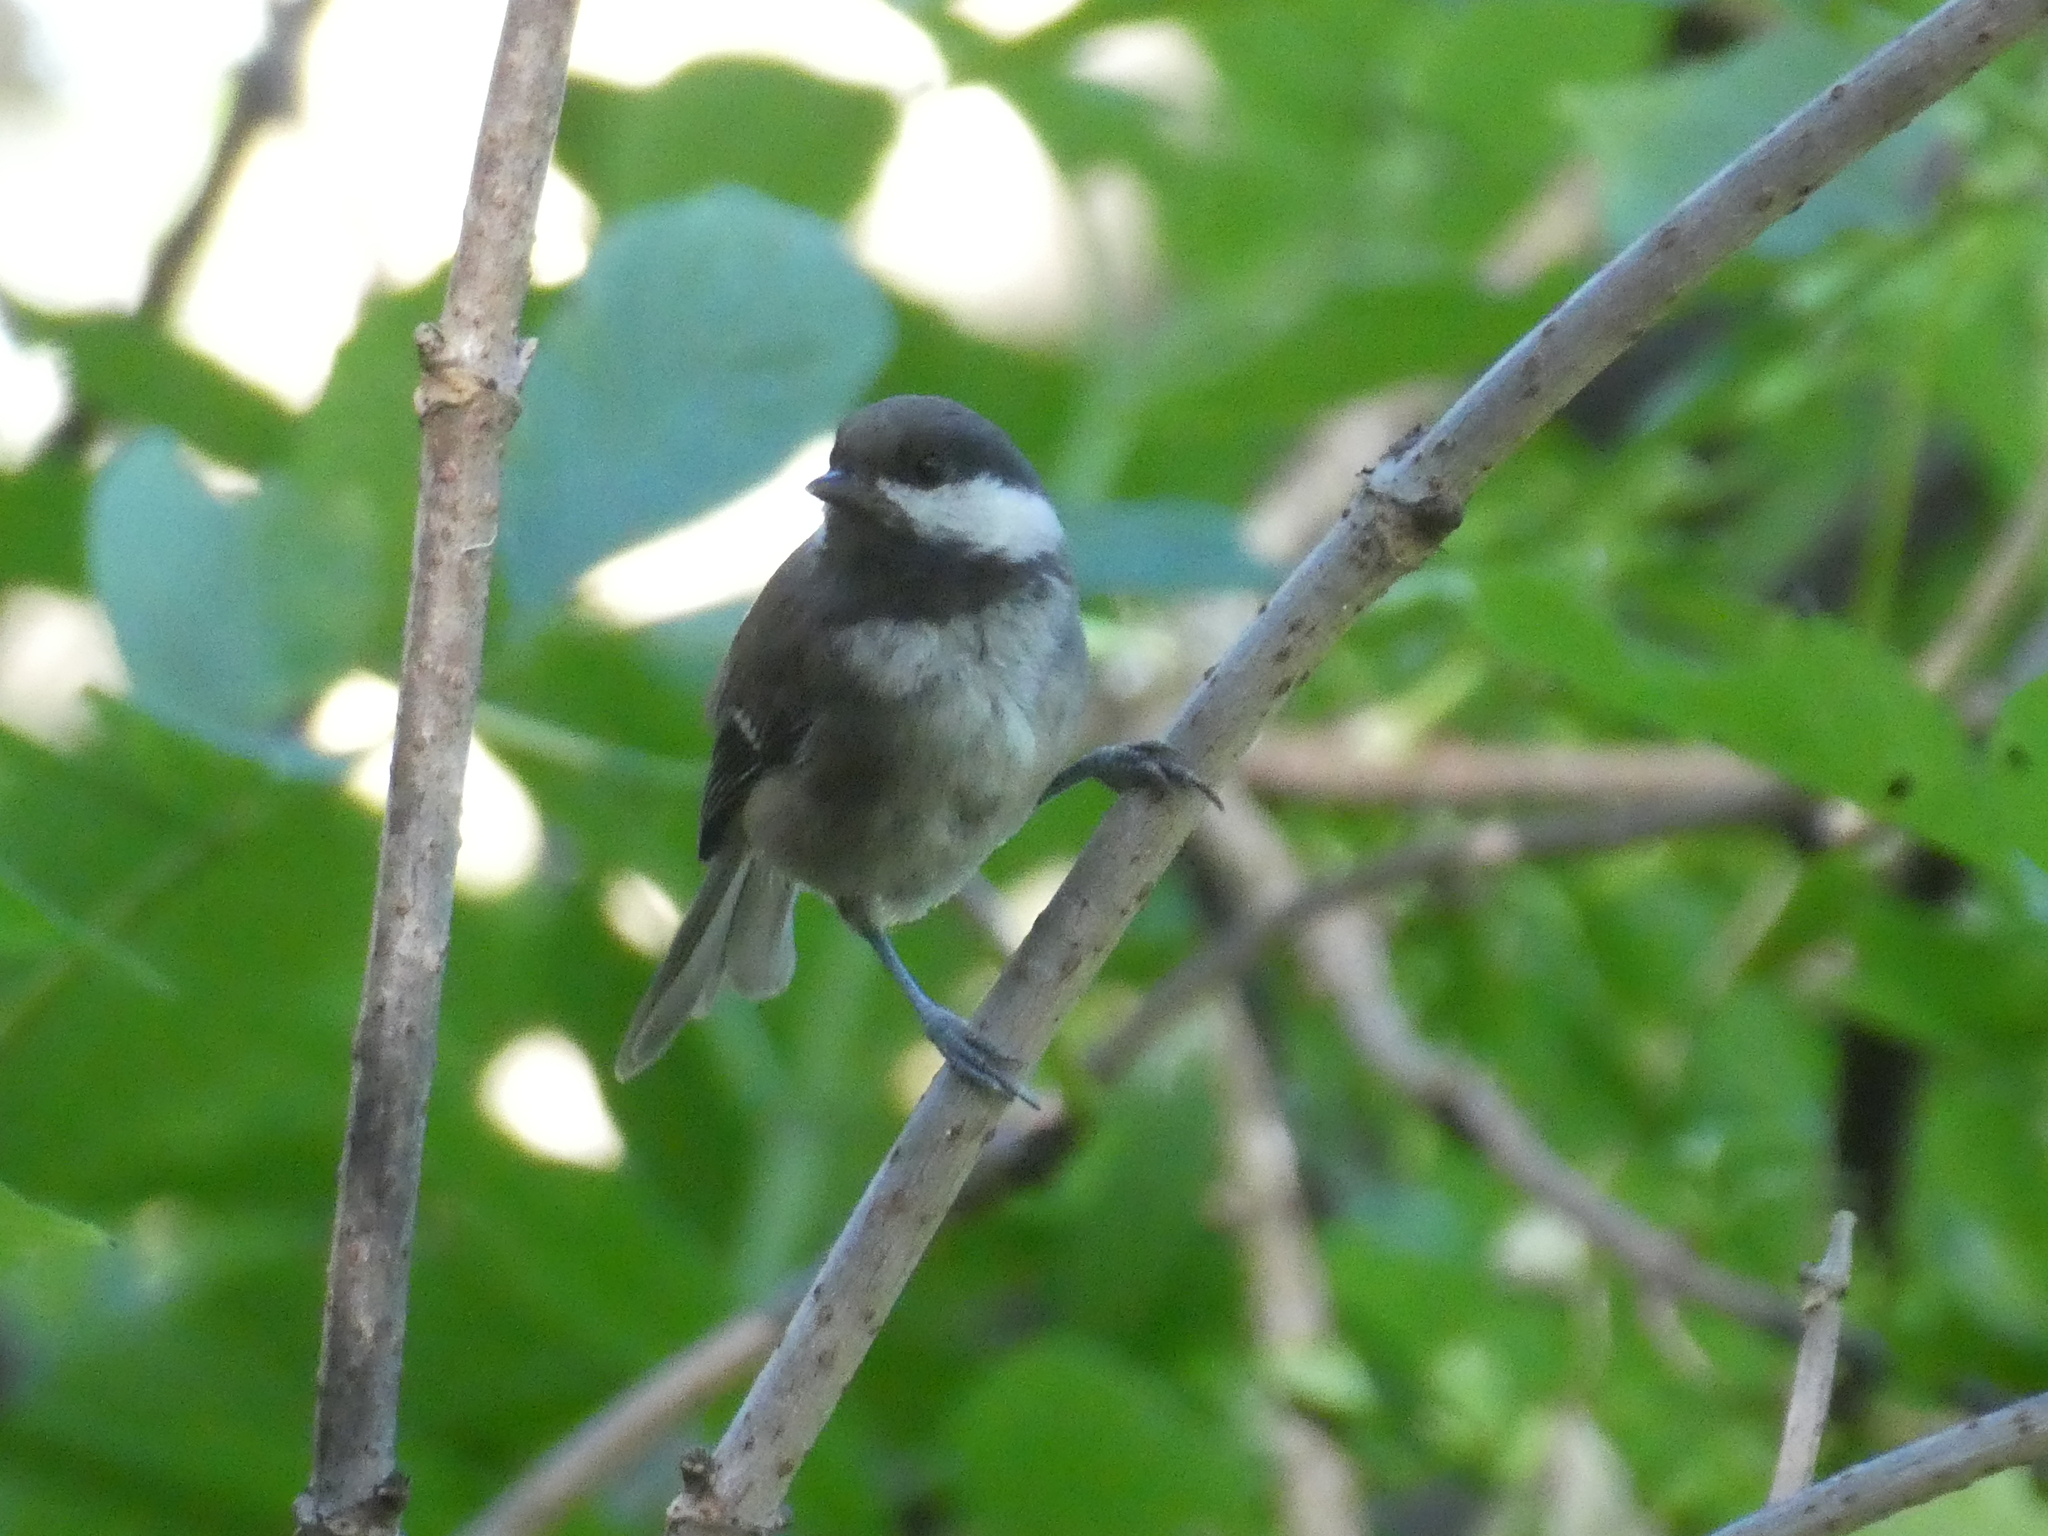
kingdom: Animalia
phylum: Chordata
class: Aves
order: Passeriformes
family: Paridae
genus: Poecile
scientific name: Poecile rufescens
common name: Chestnut-backed chickadee
